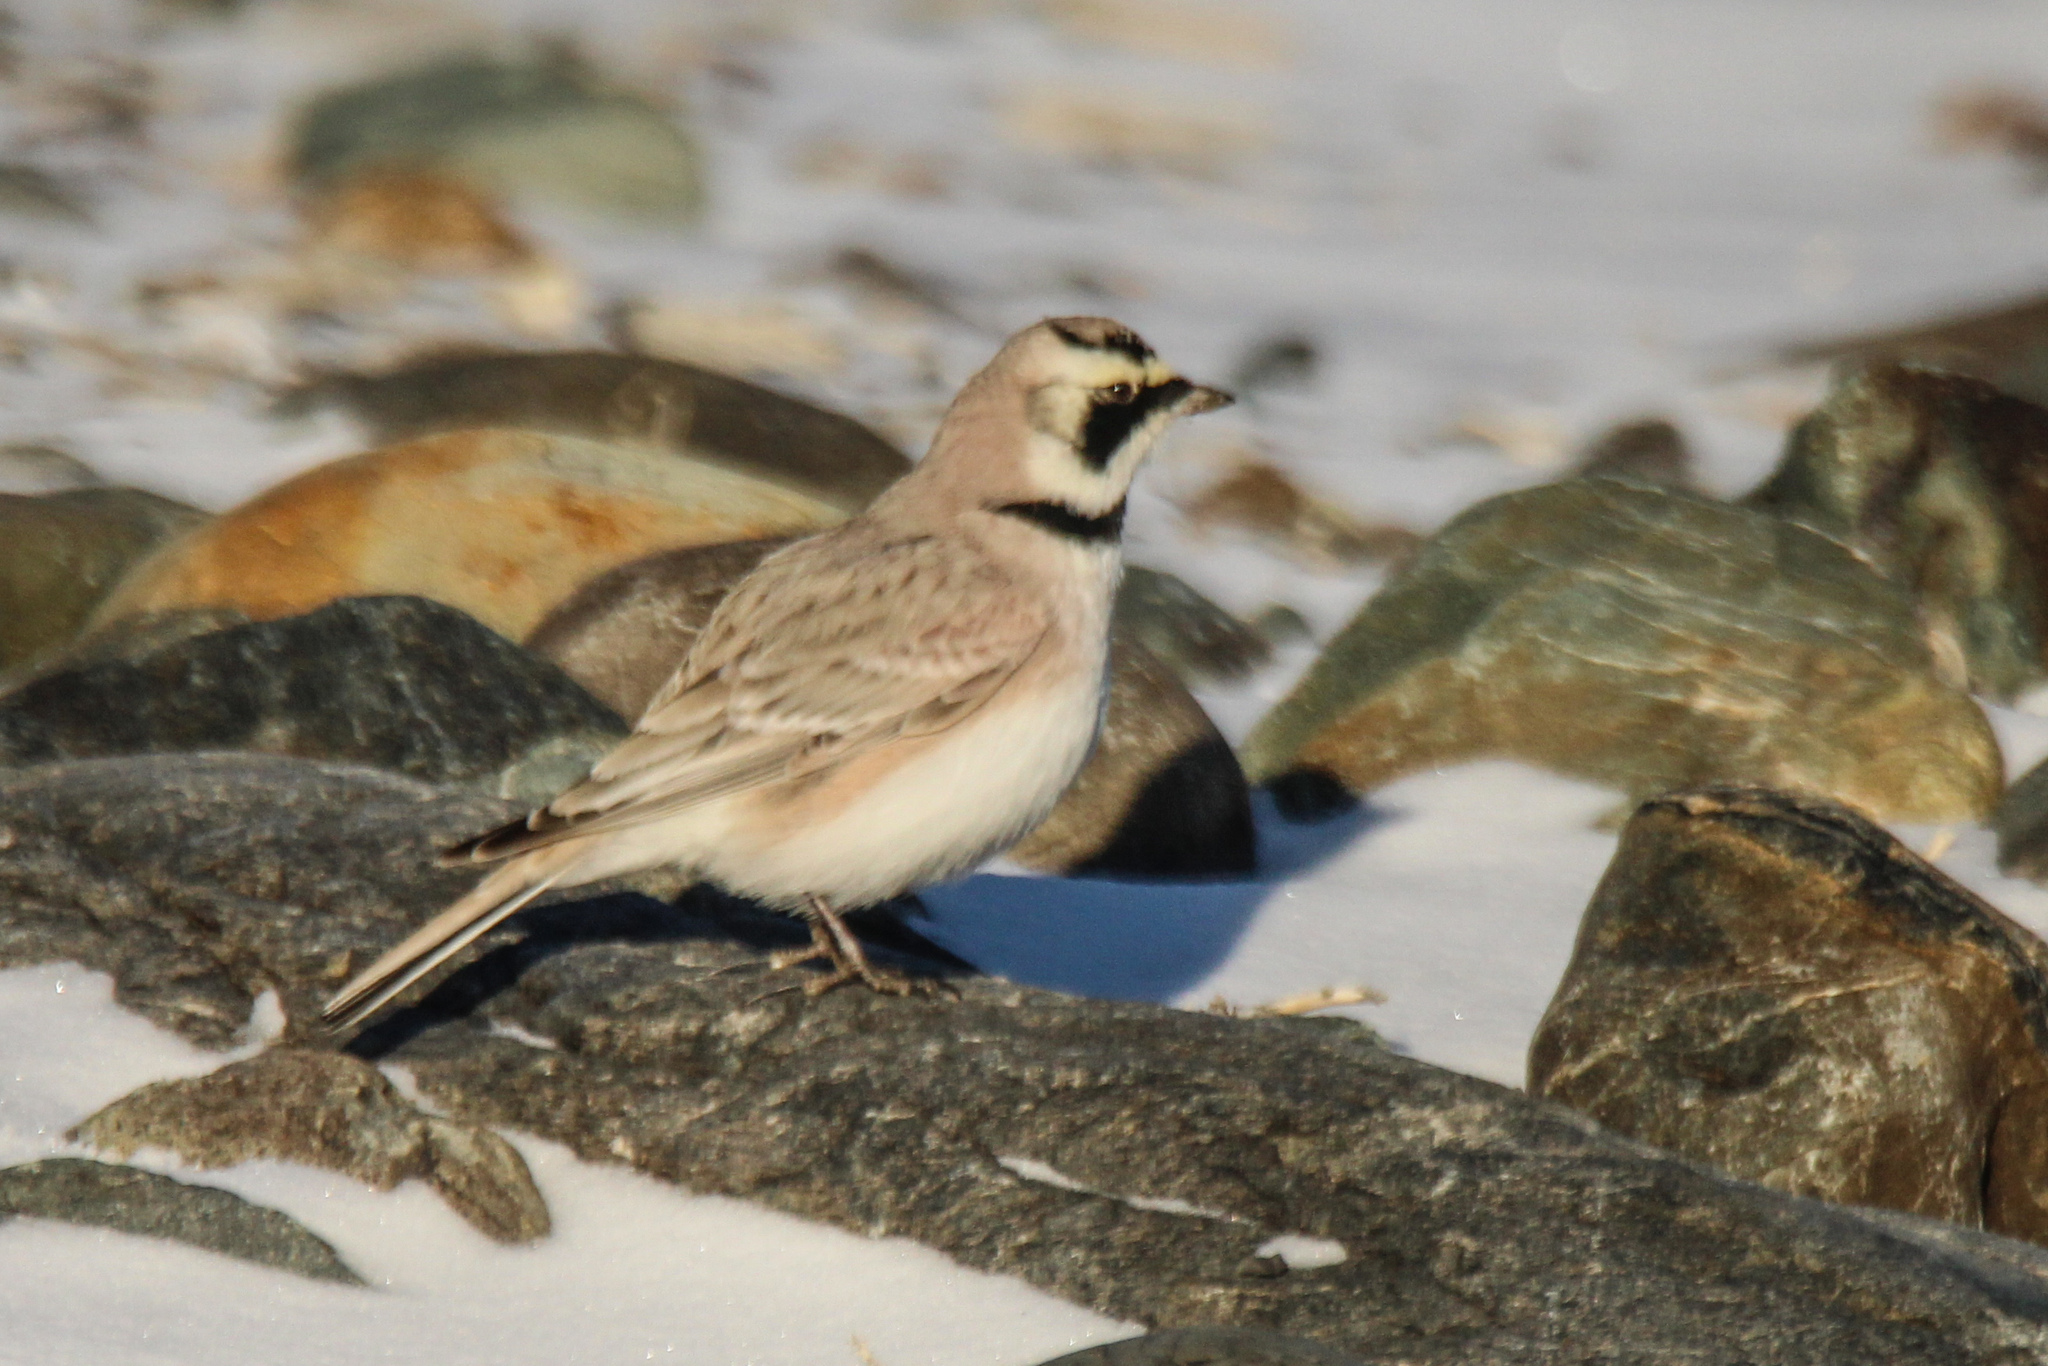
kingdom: Animalia
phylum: Chordata
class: Aves
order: Passeriformes
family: Alaudidae
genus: Eremophila
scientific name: Eremophila alpestris
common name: Horned lark
